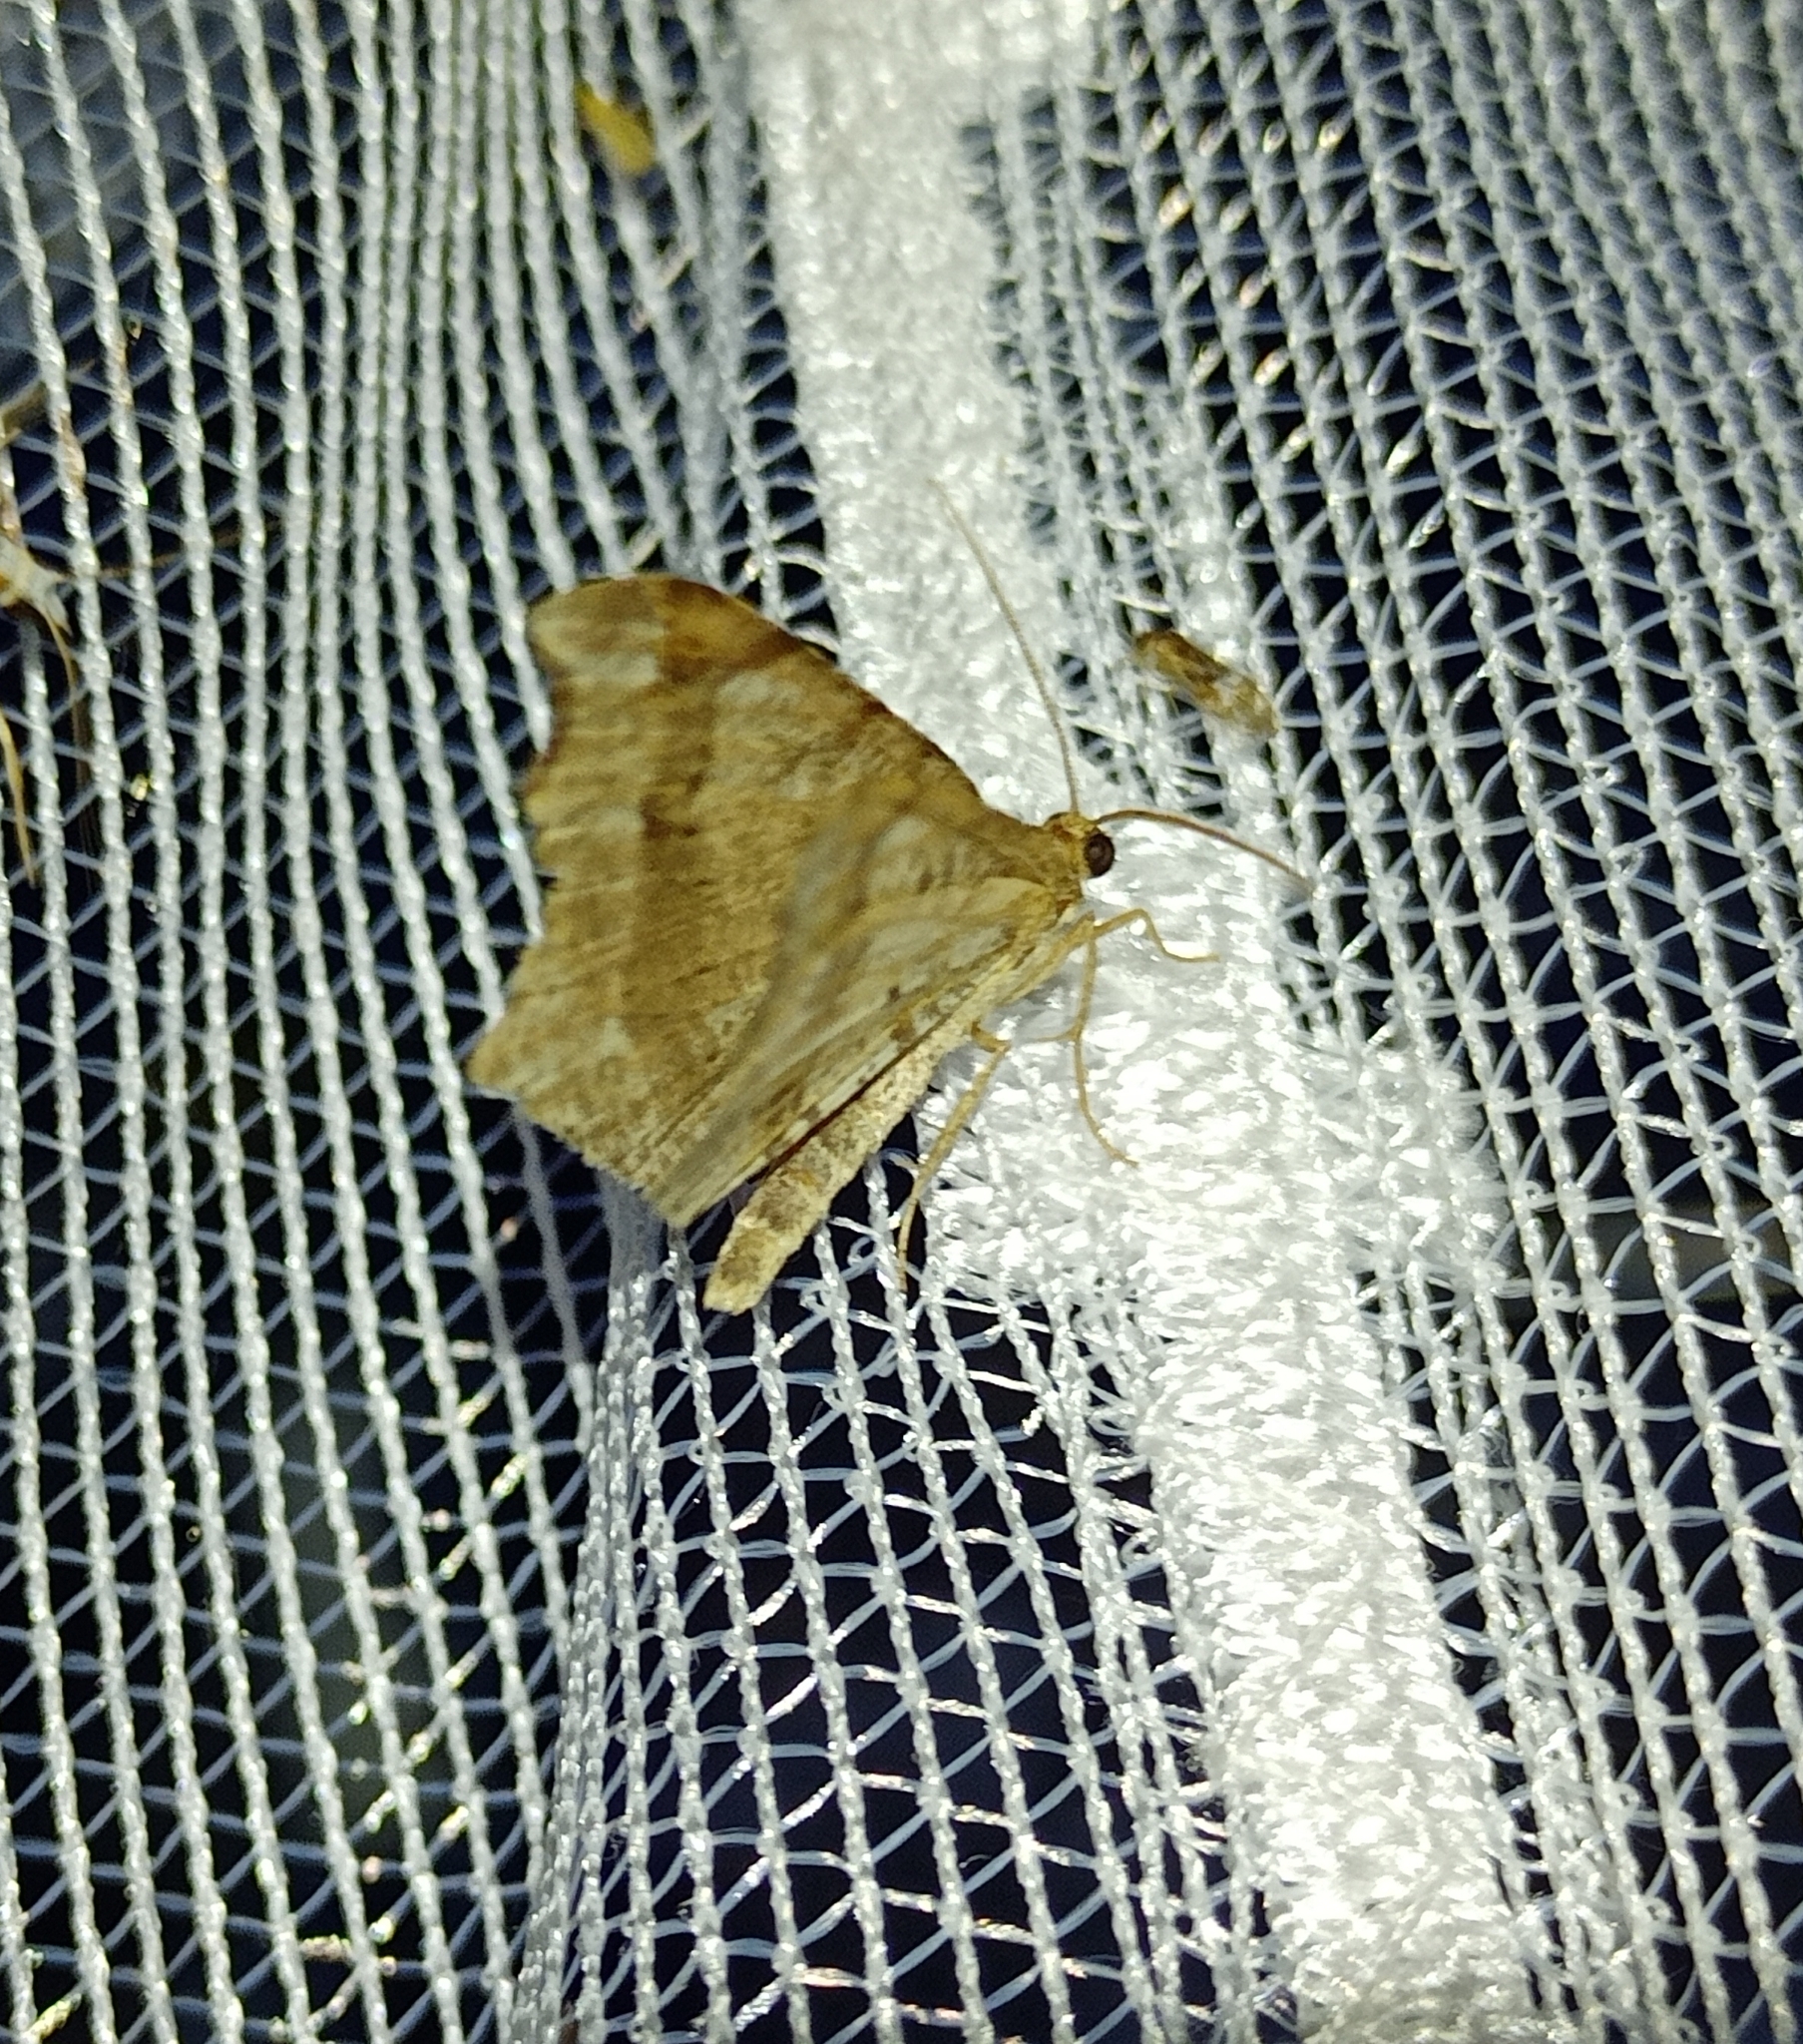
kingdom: Animalia
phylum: Arthropoda
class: Insecta
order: Lepidoptera
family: Geometridae
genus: Macaria
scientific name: Macaria alternata
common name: Sharp-angled peacock
